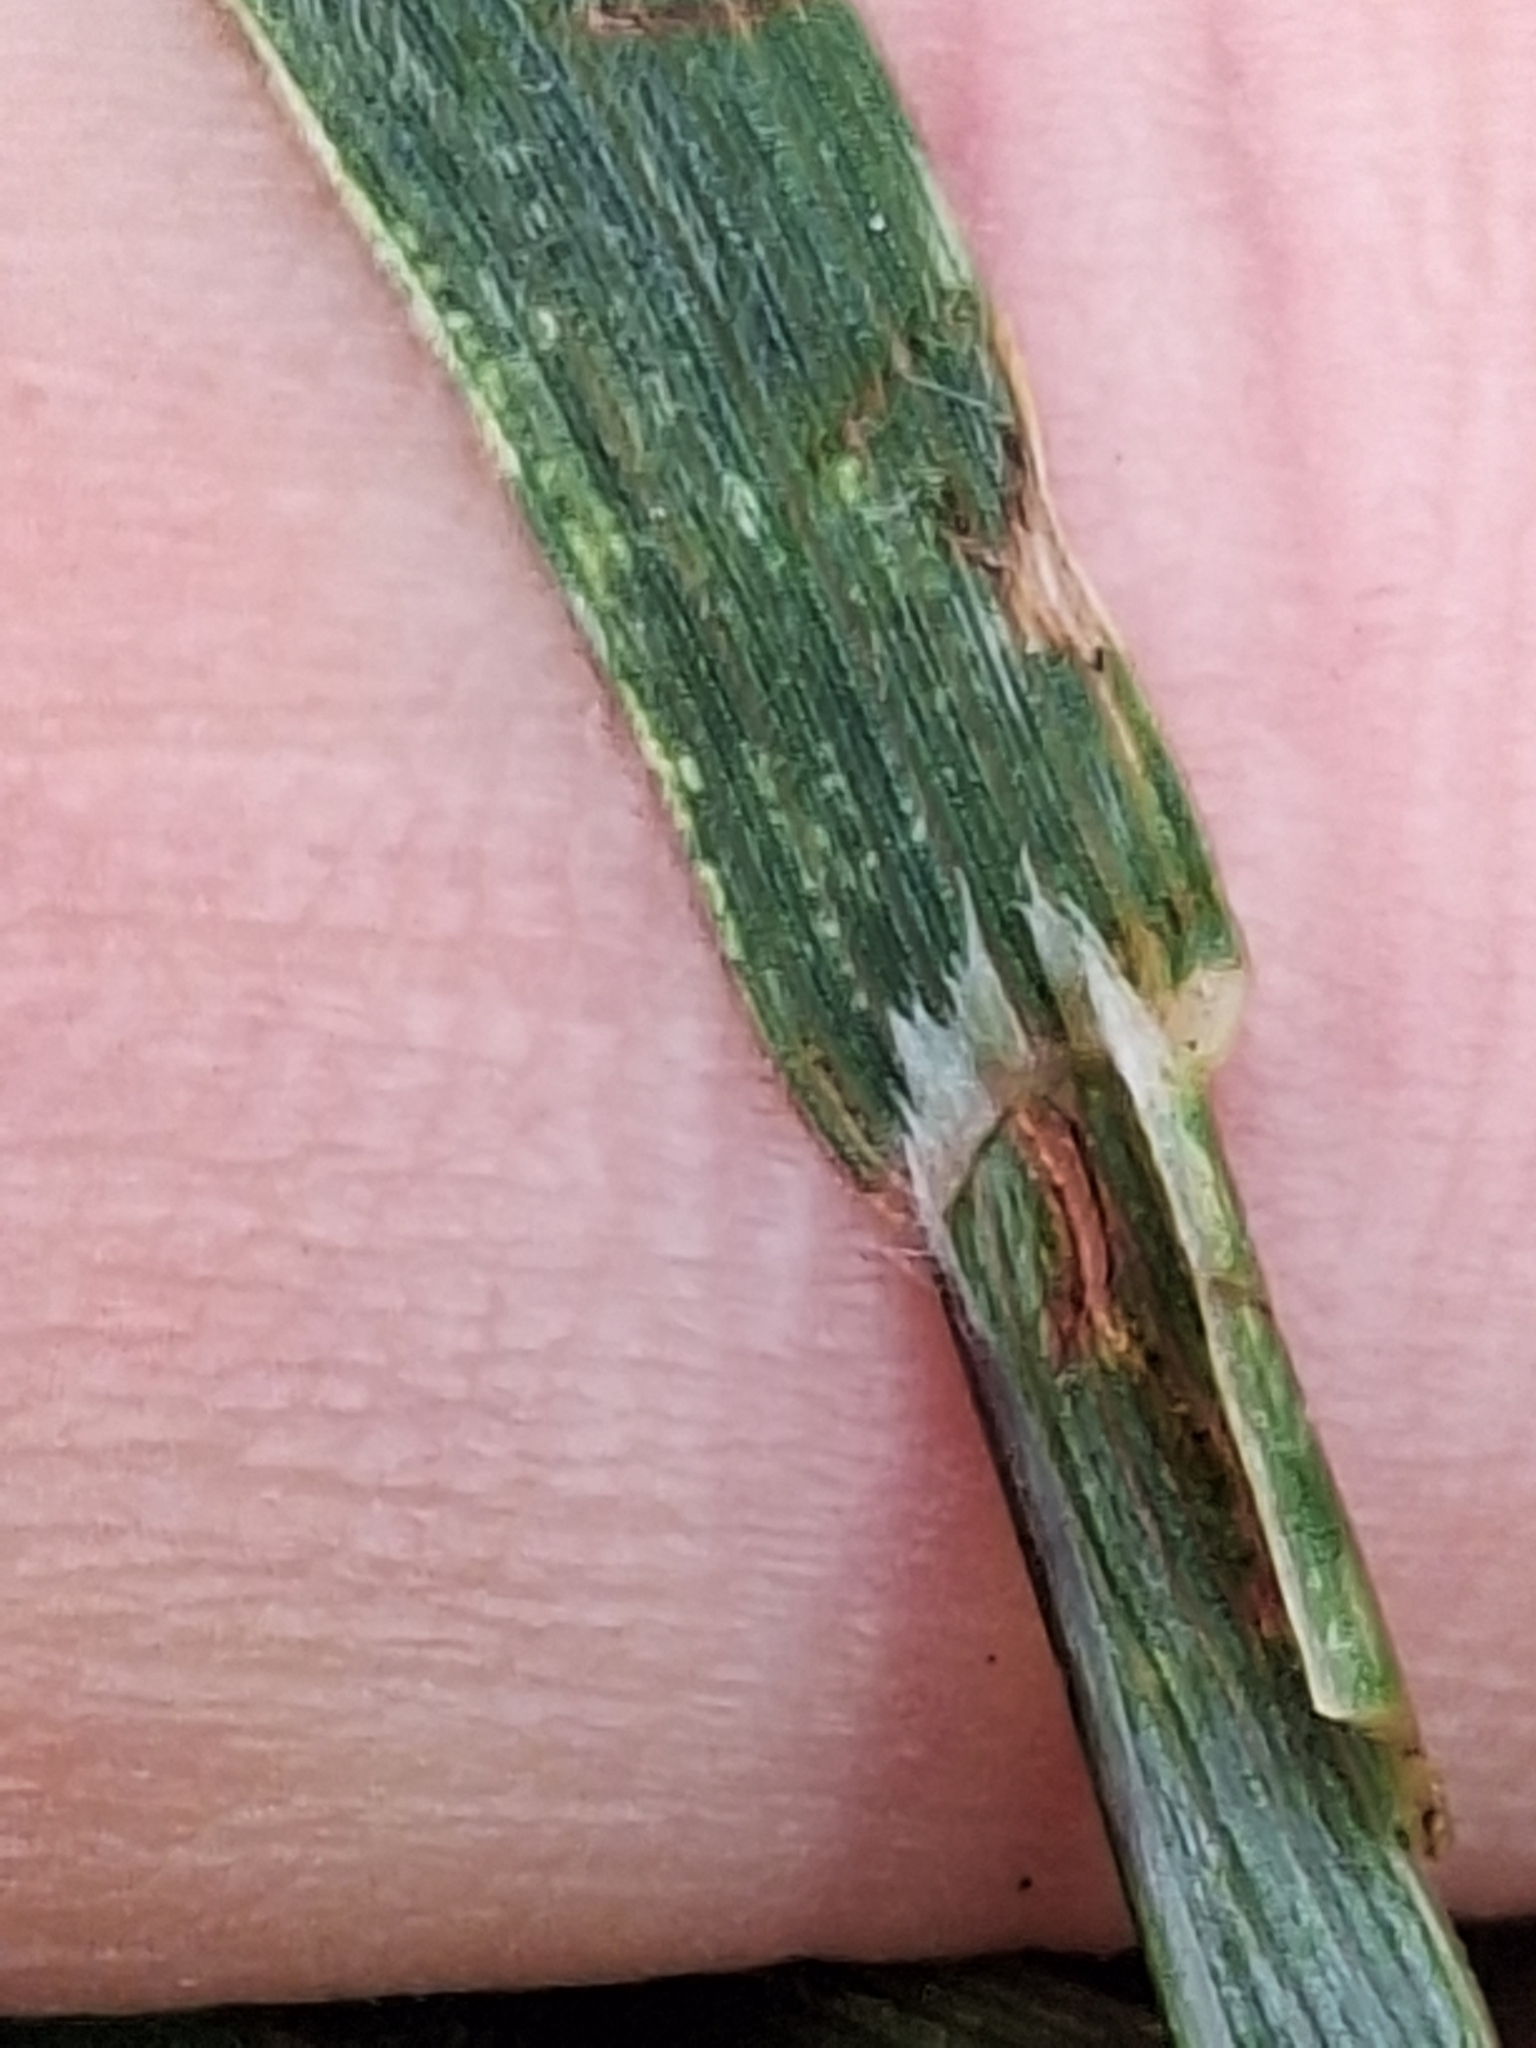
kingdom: Plantae
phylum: Tracheophyta
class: Liliopsida
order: Poales
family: Poaceae
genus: Bromus
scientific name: Bromus lithobius
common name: Chilean brome
